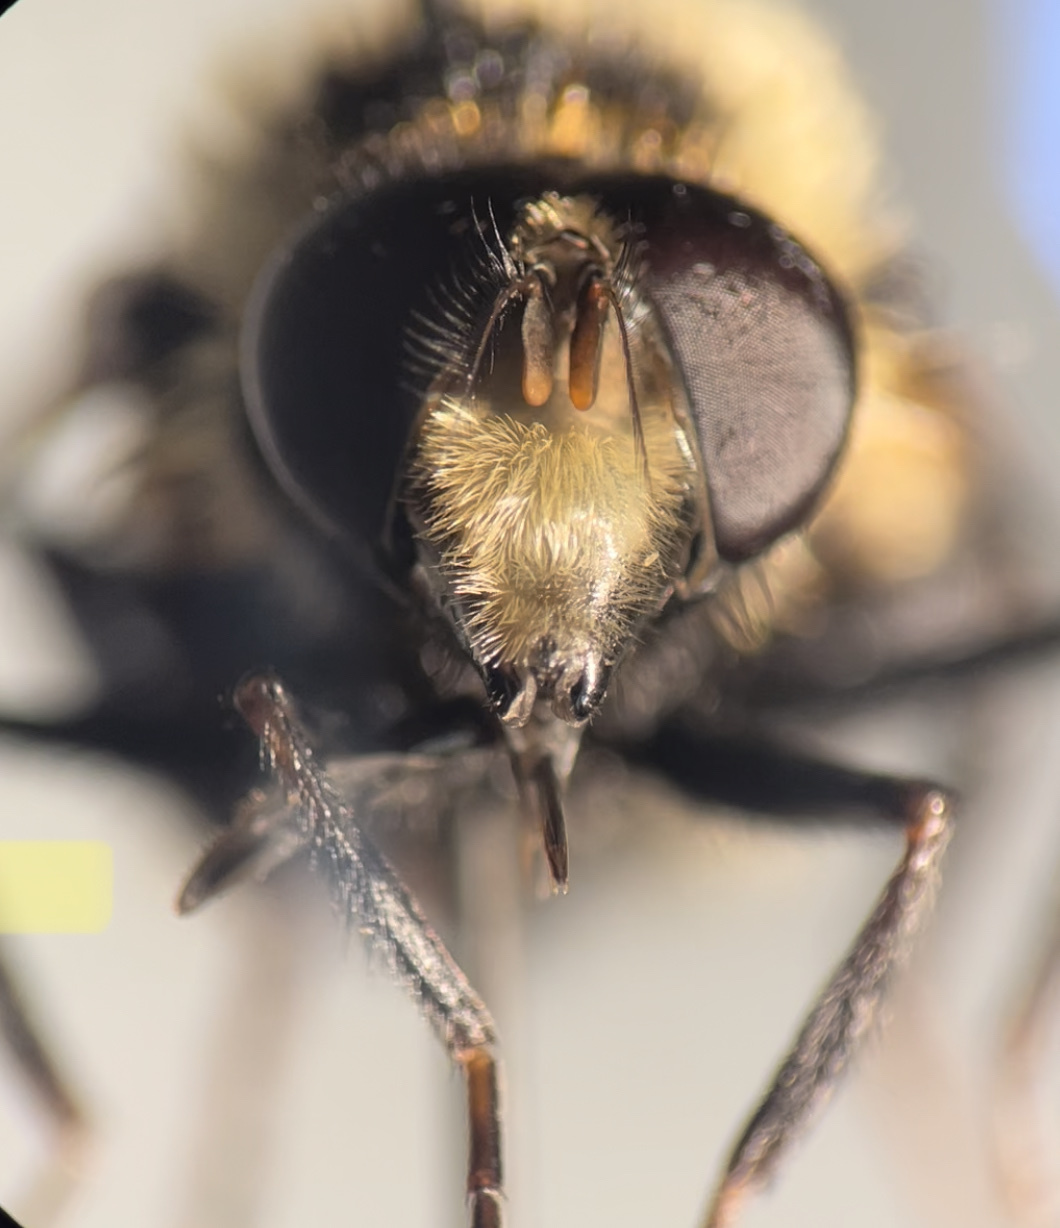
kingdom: Animalia
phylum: Arthropoda
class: Insecta
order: Diptera
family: Syrphidae
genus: Volucella
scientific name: Volucella facialis
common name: Yellow-faced swiftwing
